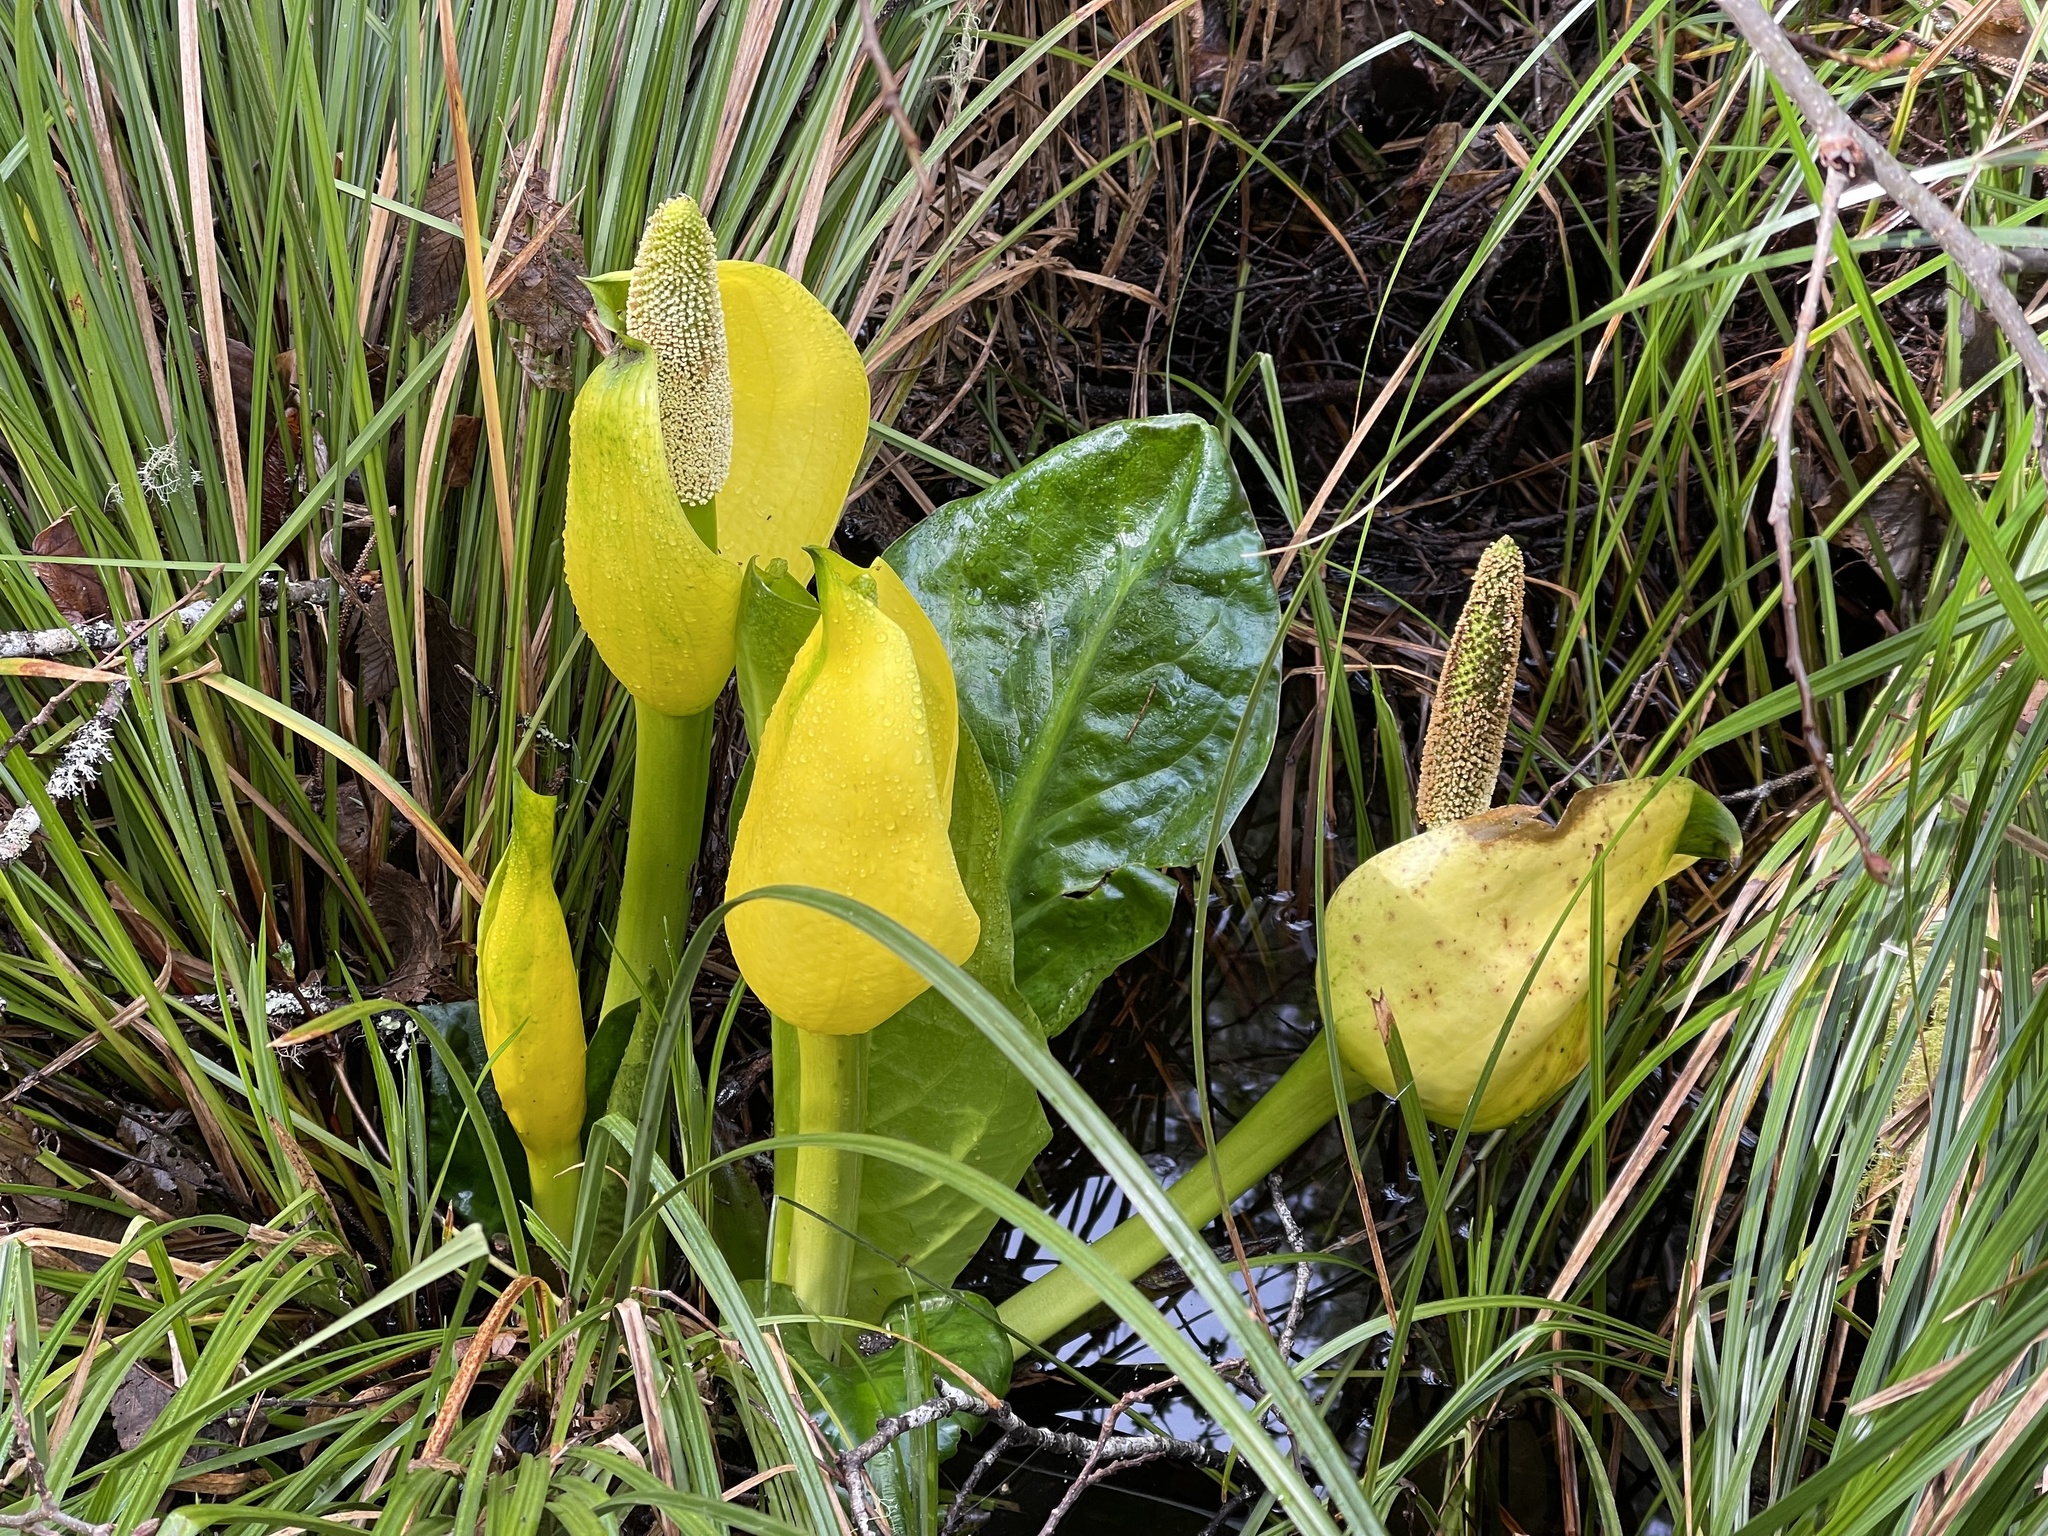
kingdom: Plantae
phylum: Tracheophyta
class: Liliopsida
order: Alismatales
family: Araceae
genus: Lysichiton
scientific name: Lysichiton americanus
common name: American skunk cabbage
